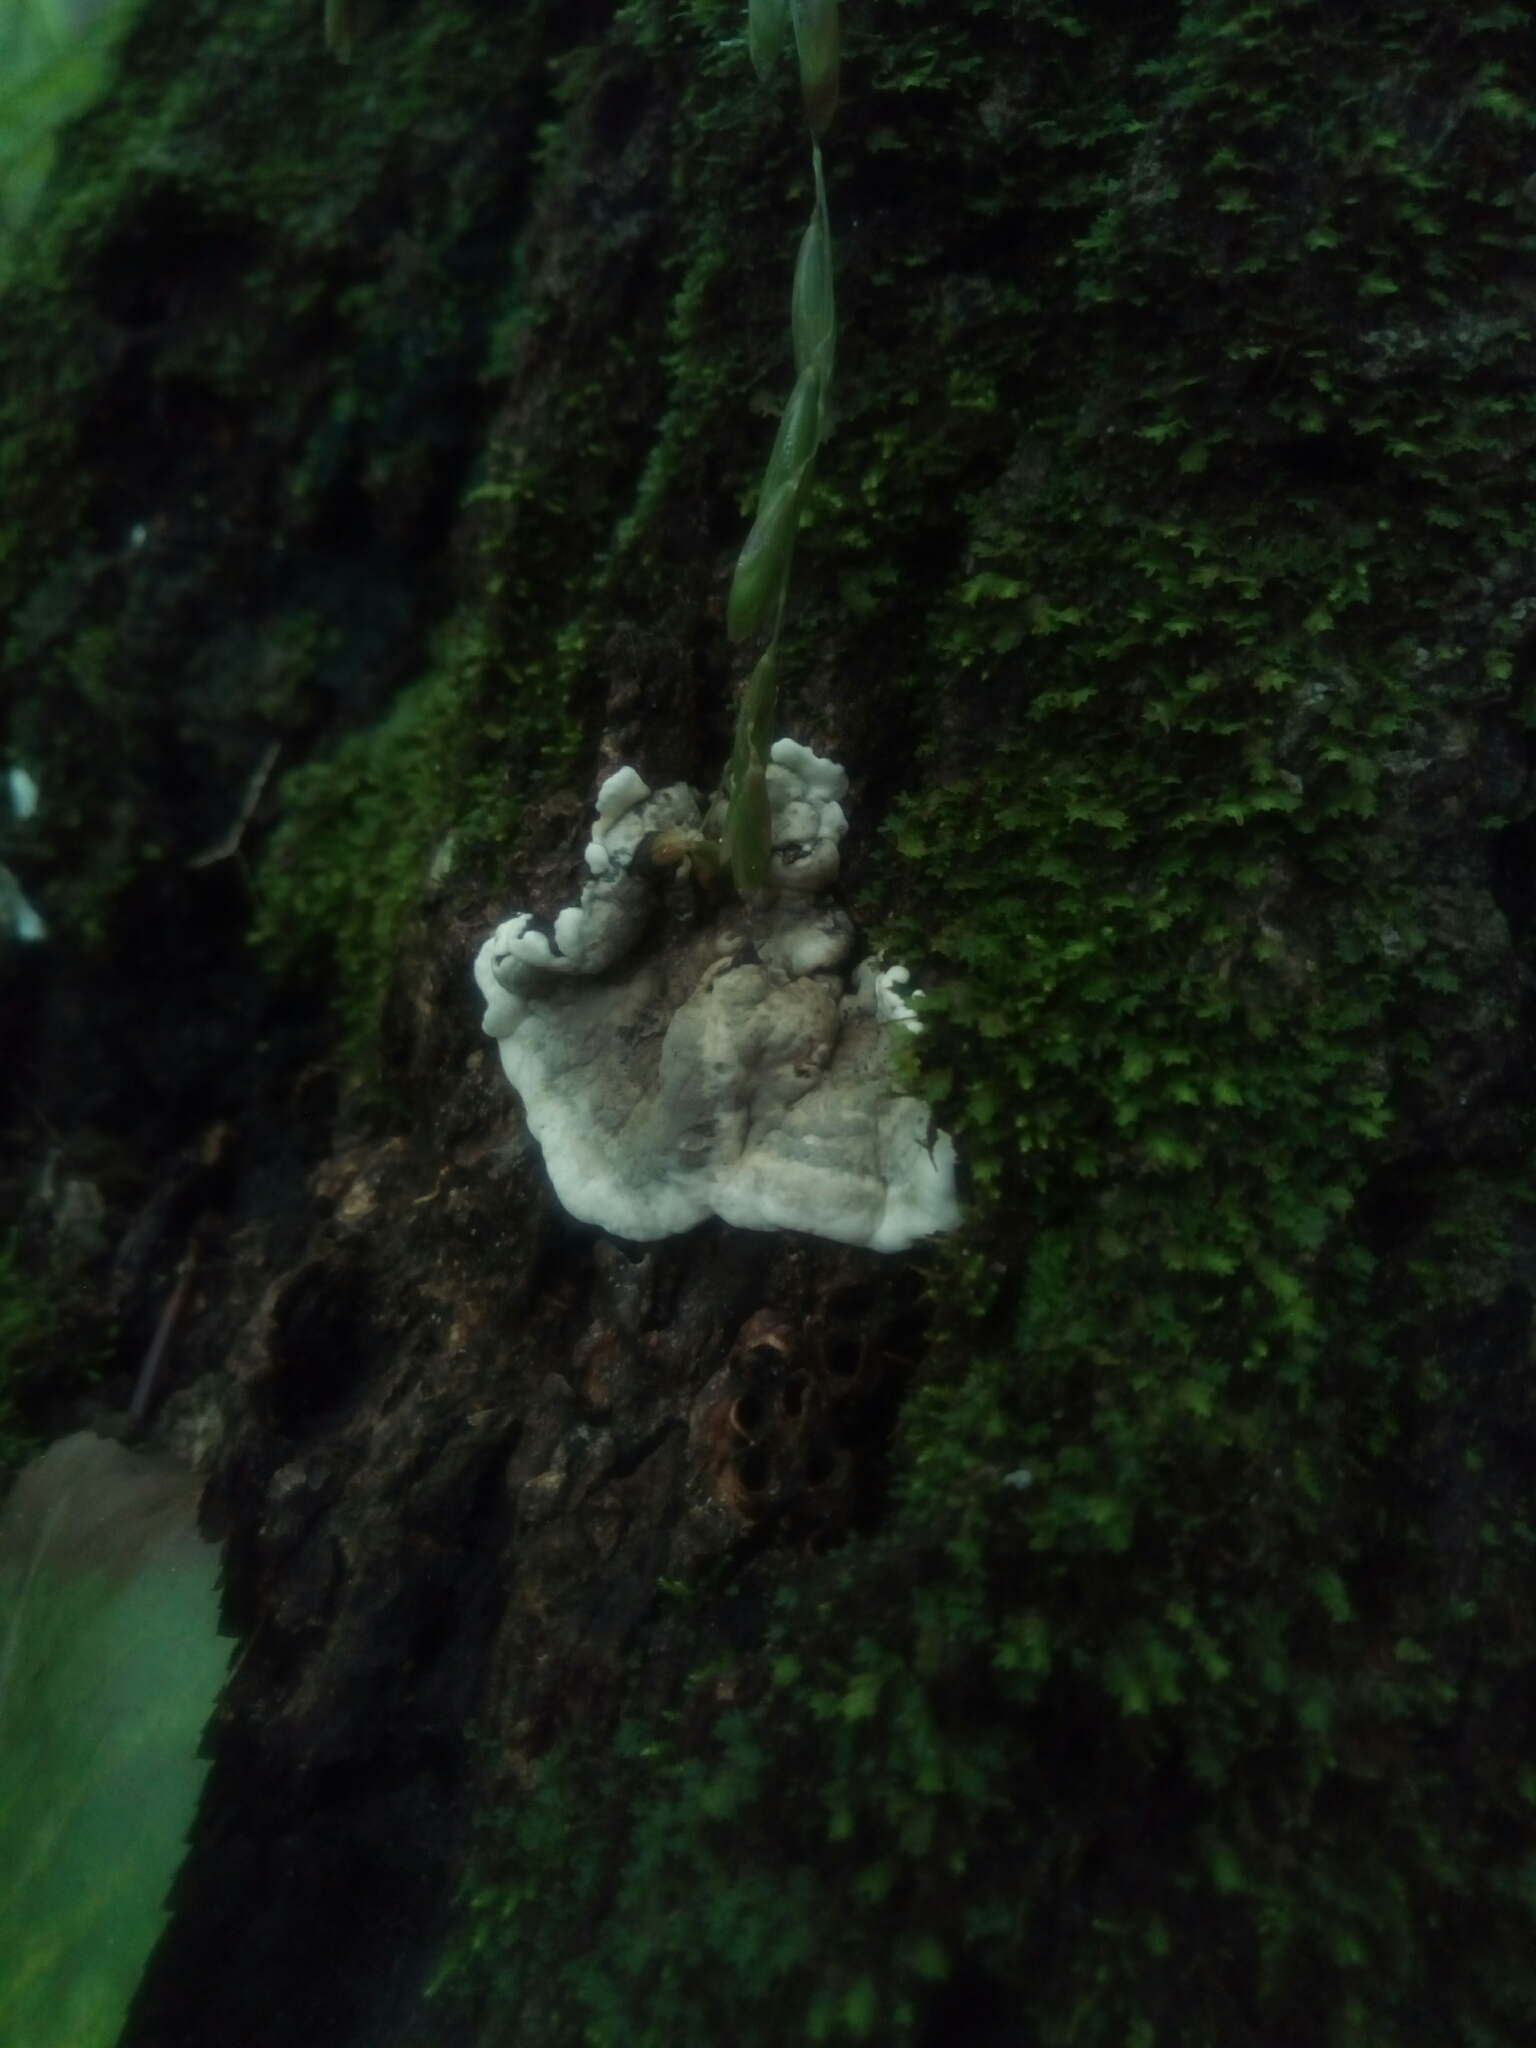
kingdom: Fungi
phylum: Ascomycota
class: Sordariomycetes
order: Xylariales
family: Xylariaceae
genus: Kretzschmaria
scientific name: Kretzschmaria deusta
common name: Brittle cinder
